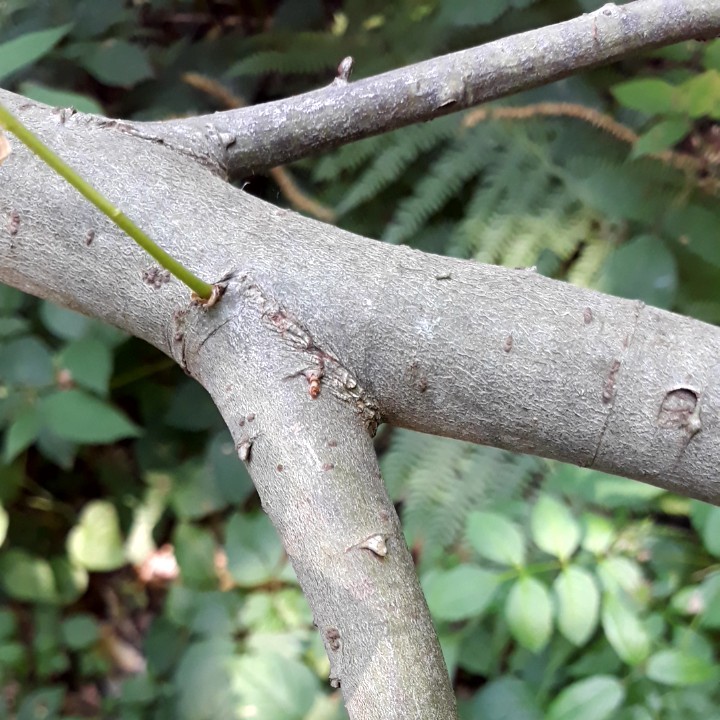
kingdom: Plantae
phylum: Tracheophyta
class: Magnoliopsida
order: Malpighiales
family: Salicaceae
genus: Salix
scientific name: Salix caprea
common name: Goat willow
